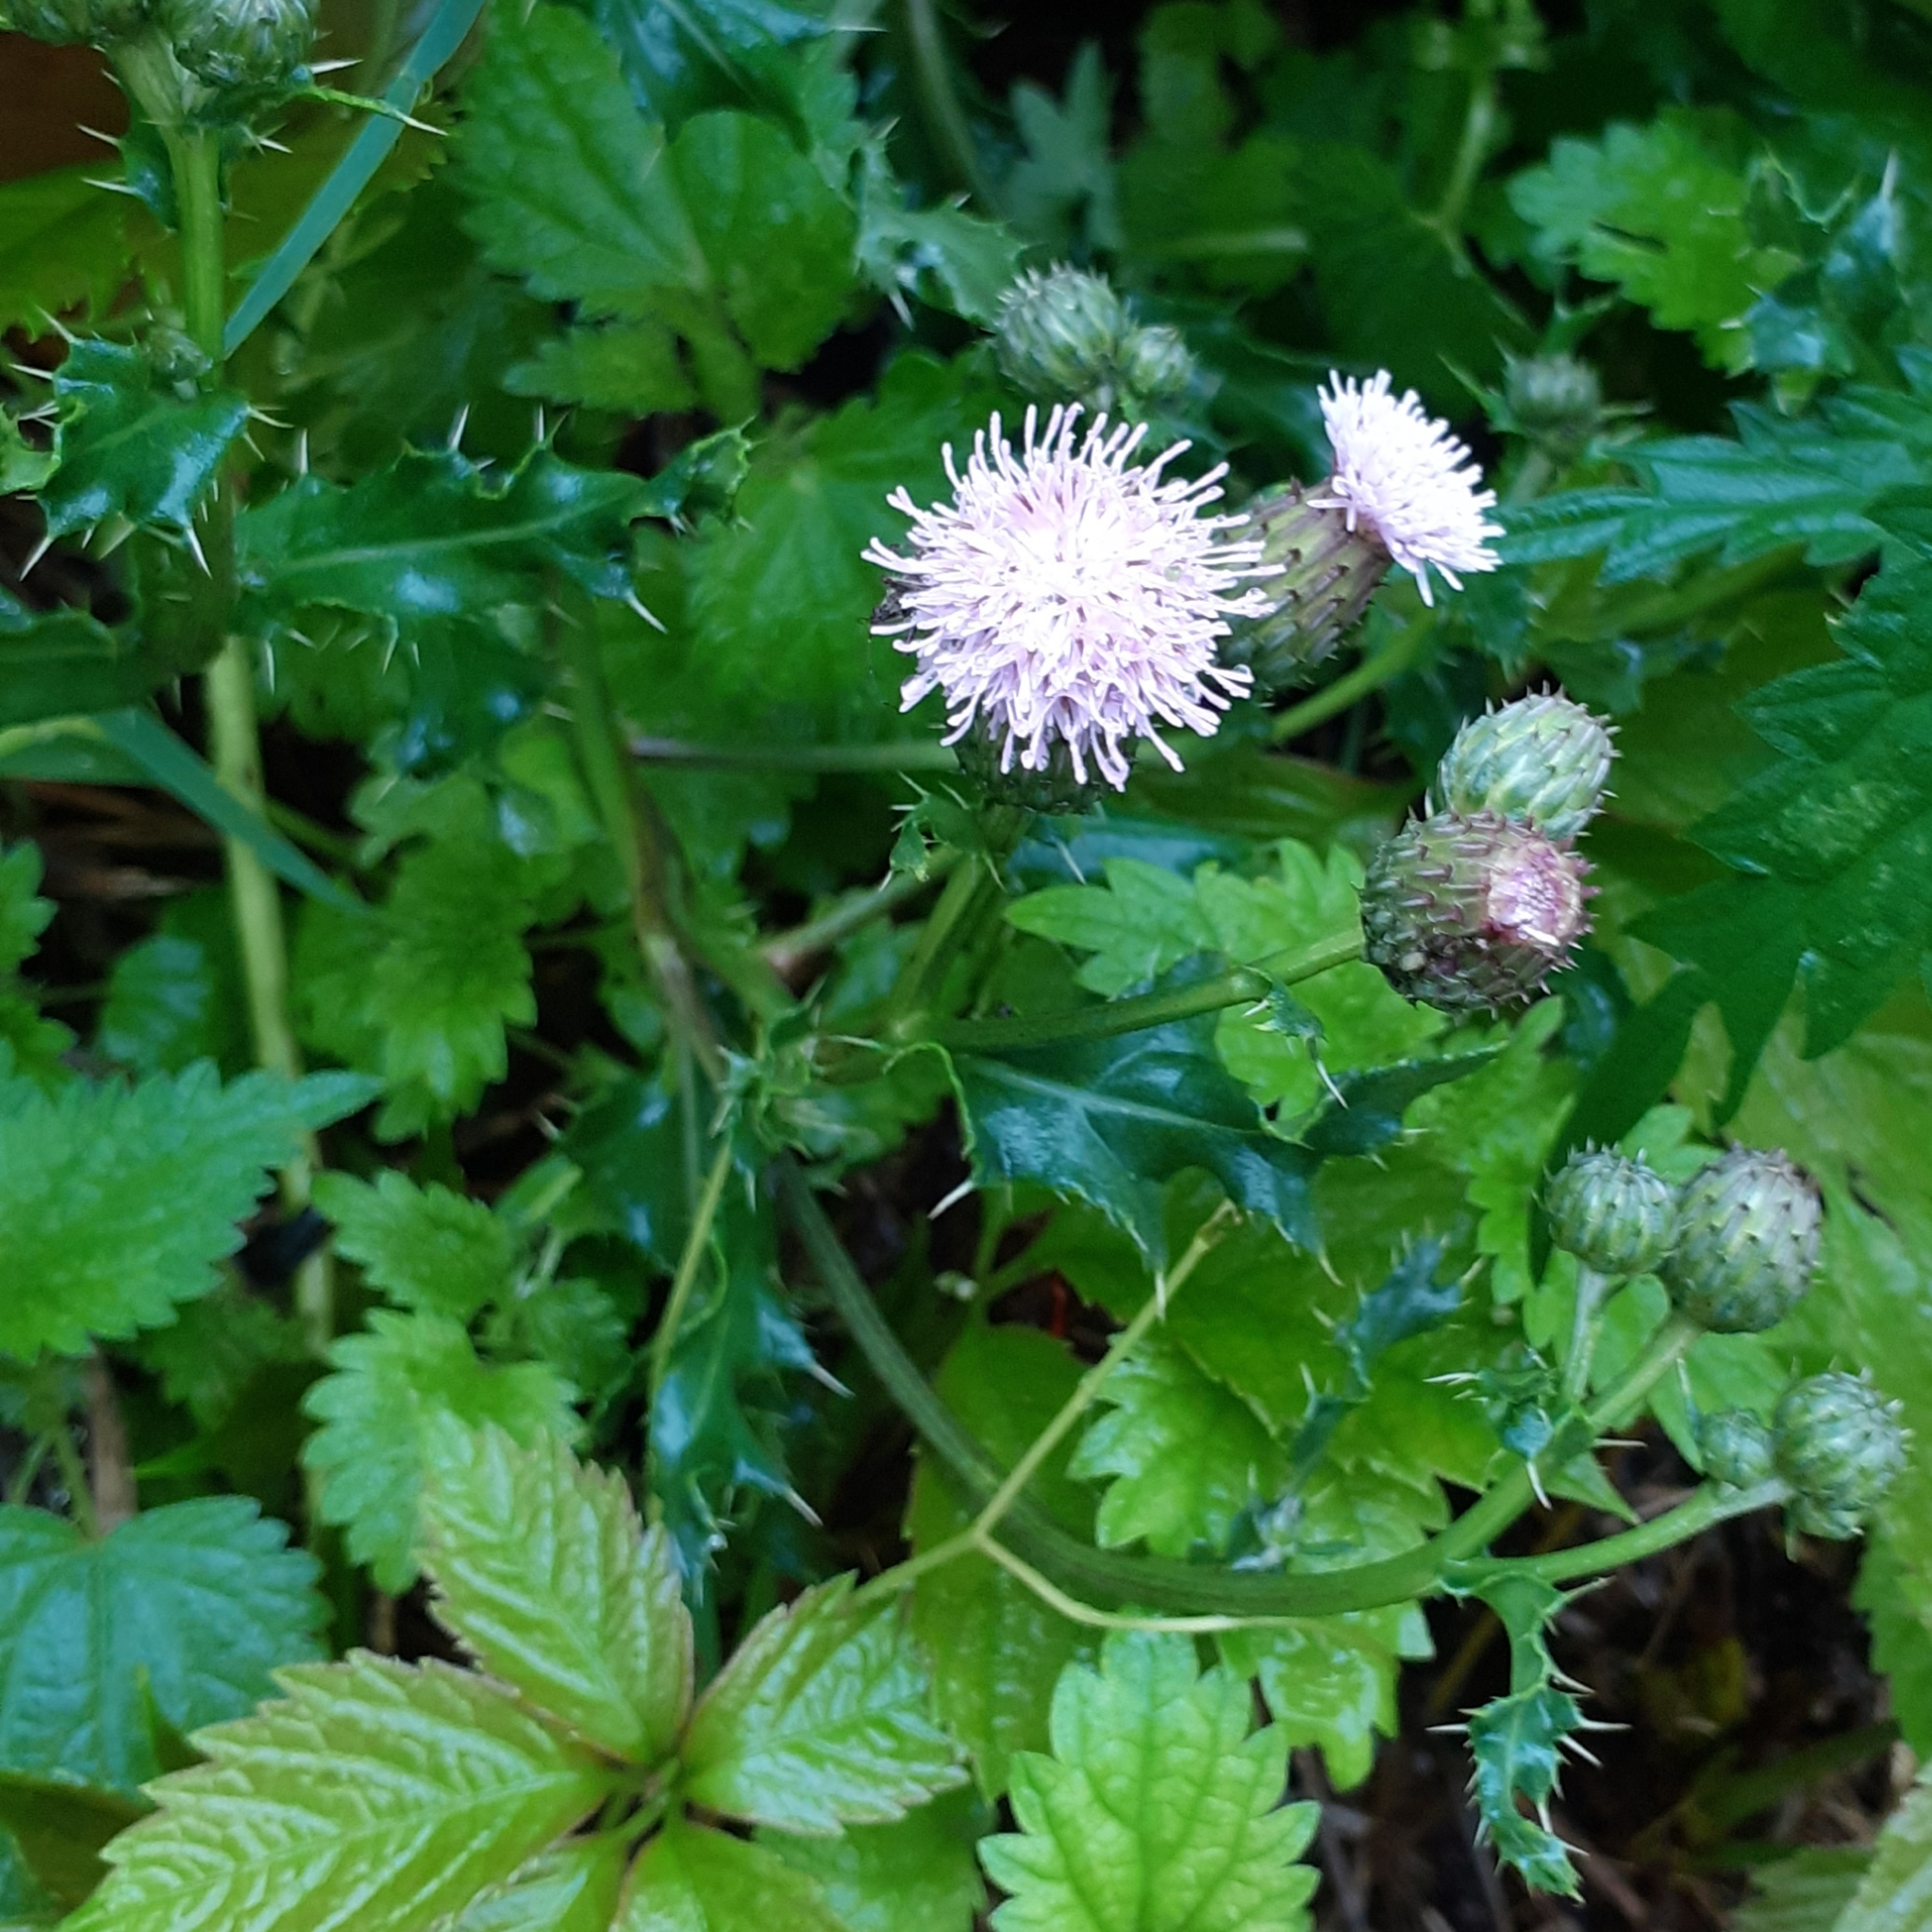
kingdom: Plantae
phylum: Tracheophyta
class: Magnoliopsida
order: Asterales
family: Asteraceae
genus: Cirsium
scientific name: Cirsium arvense
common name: Creeping thistle
